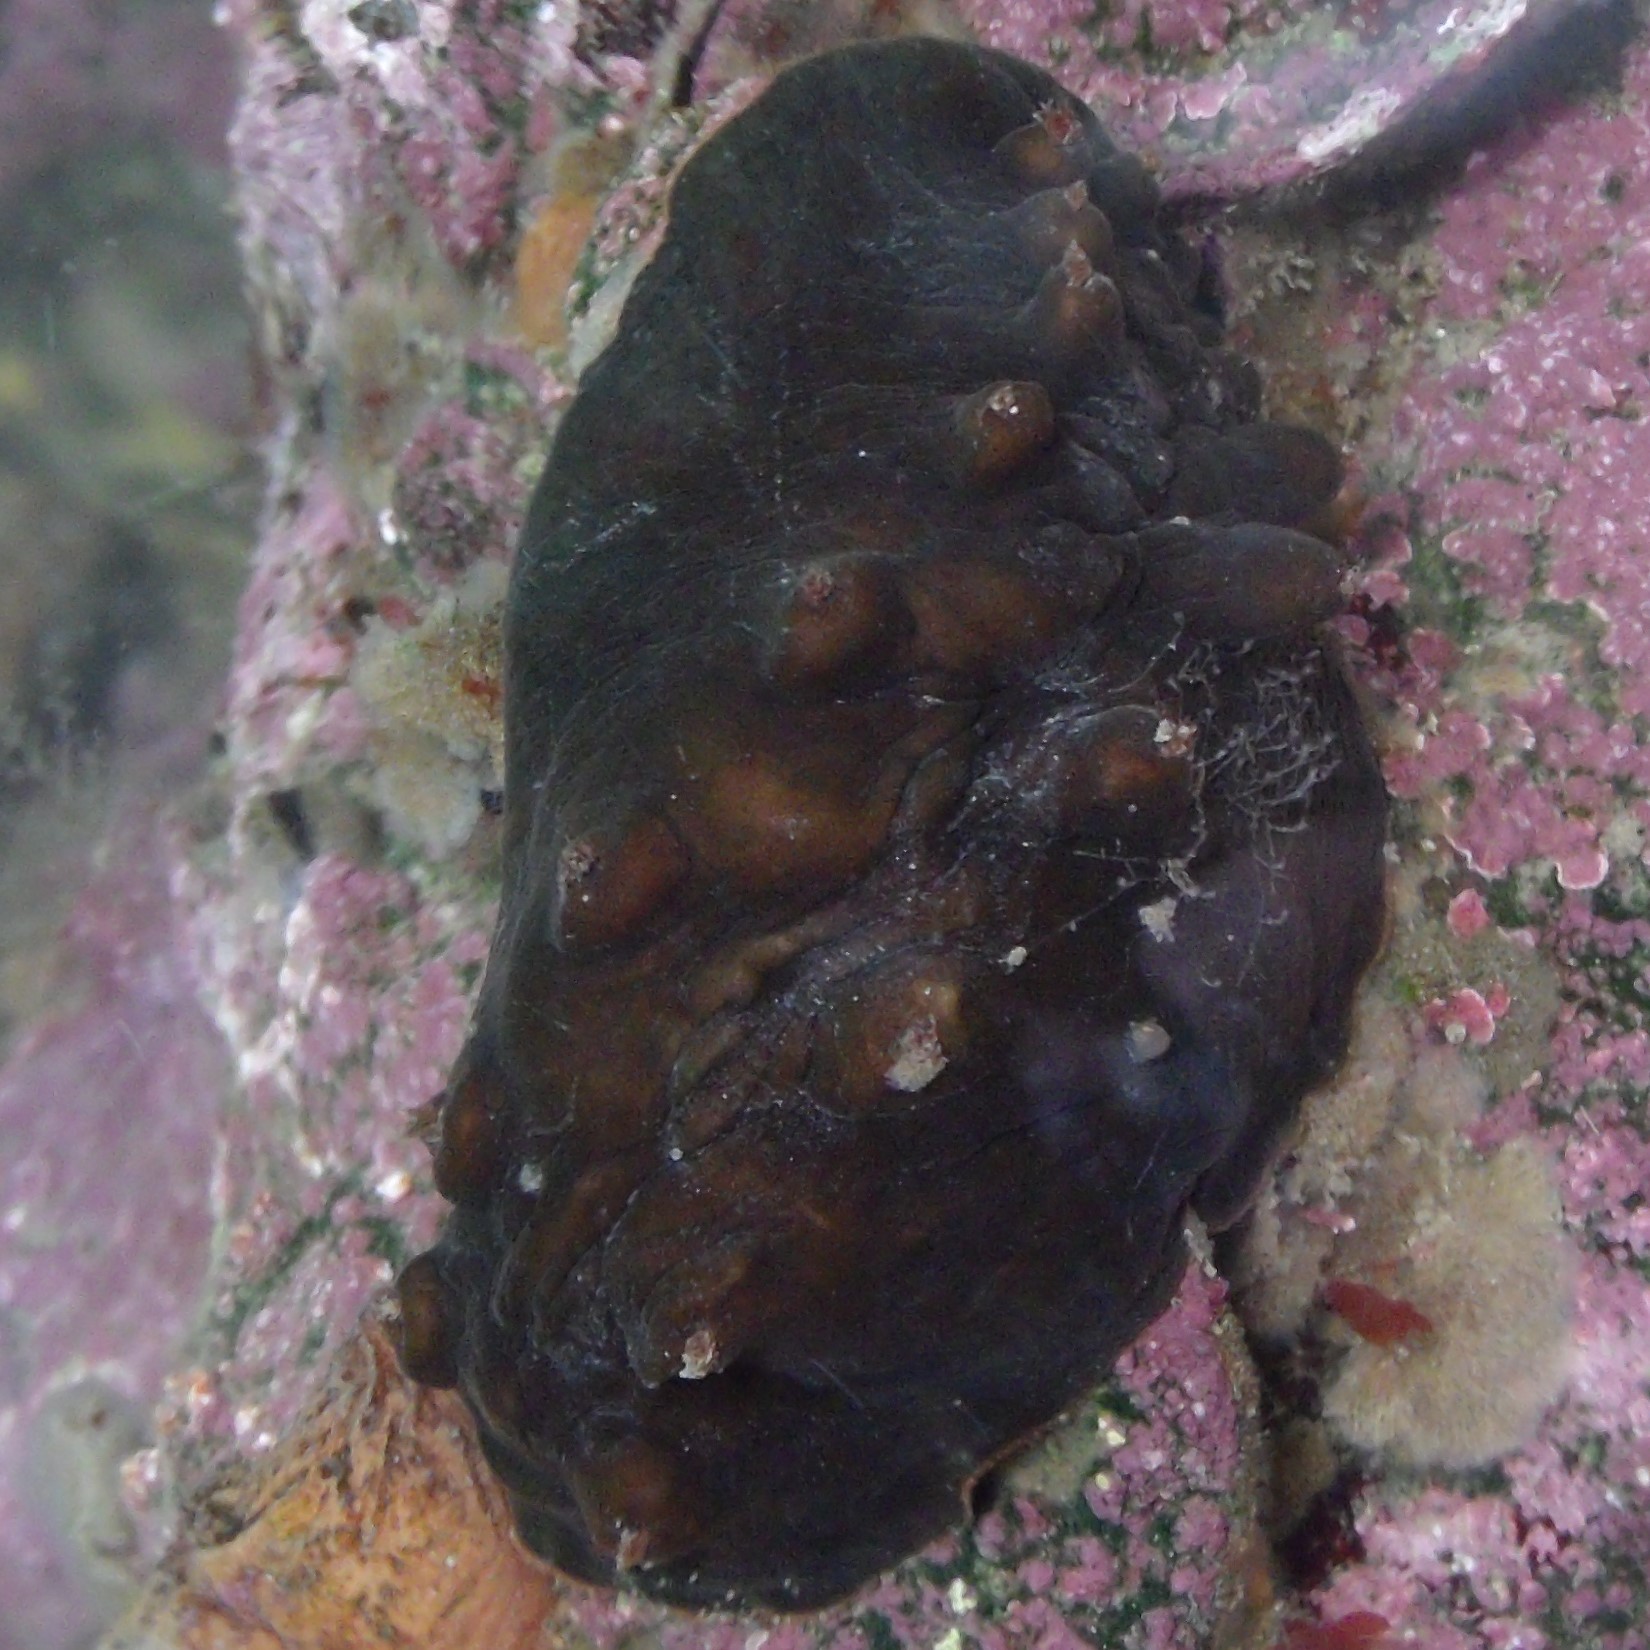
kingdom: Animalia
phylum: Mollusca
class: Polyplacophora
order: Chitonida
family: Acanthochitonidae
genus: Cryptoconchus
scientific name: Cryptoconchus porosus
